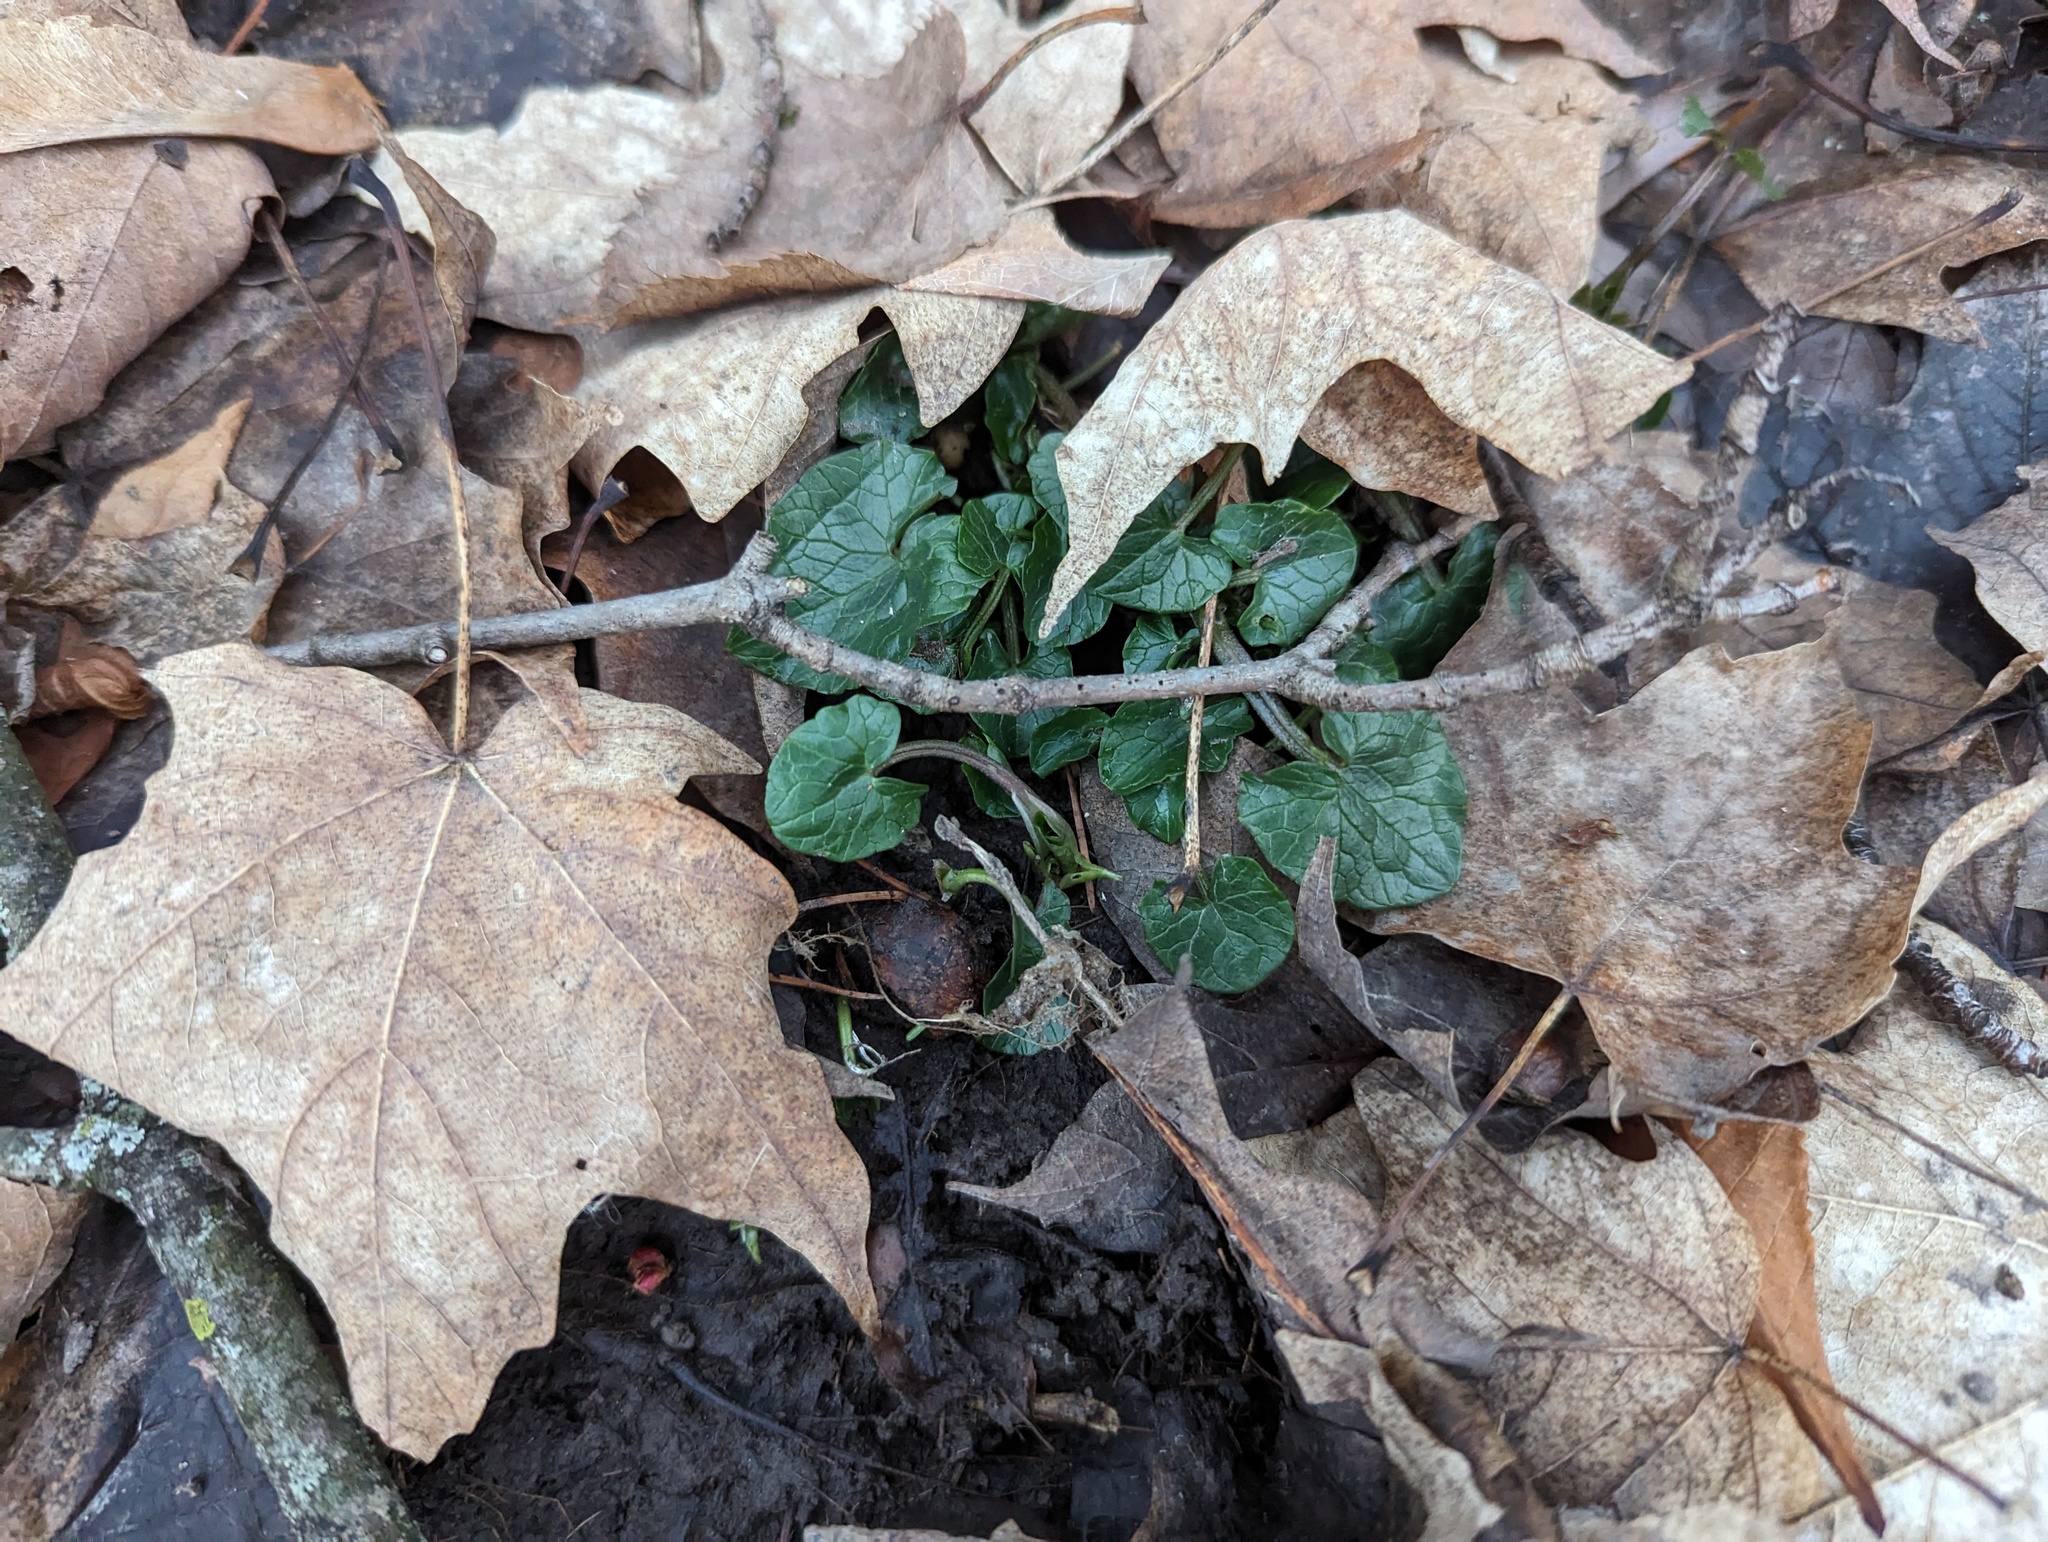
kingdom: Plantae
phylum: Tracheophyta
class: Magnoliopsida
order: Ranunculales
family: Ranunculaceae
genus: Ficaria
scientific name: Ficaria verna
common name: Lesser celandine
